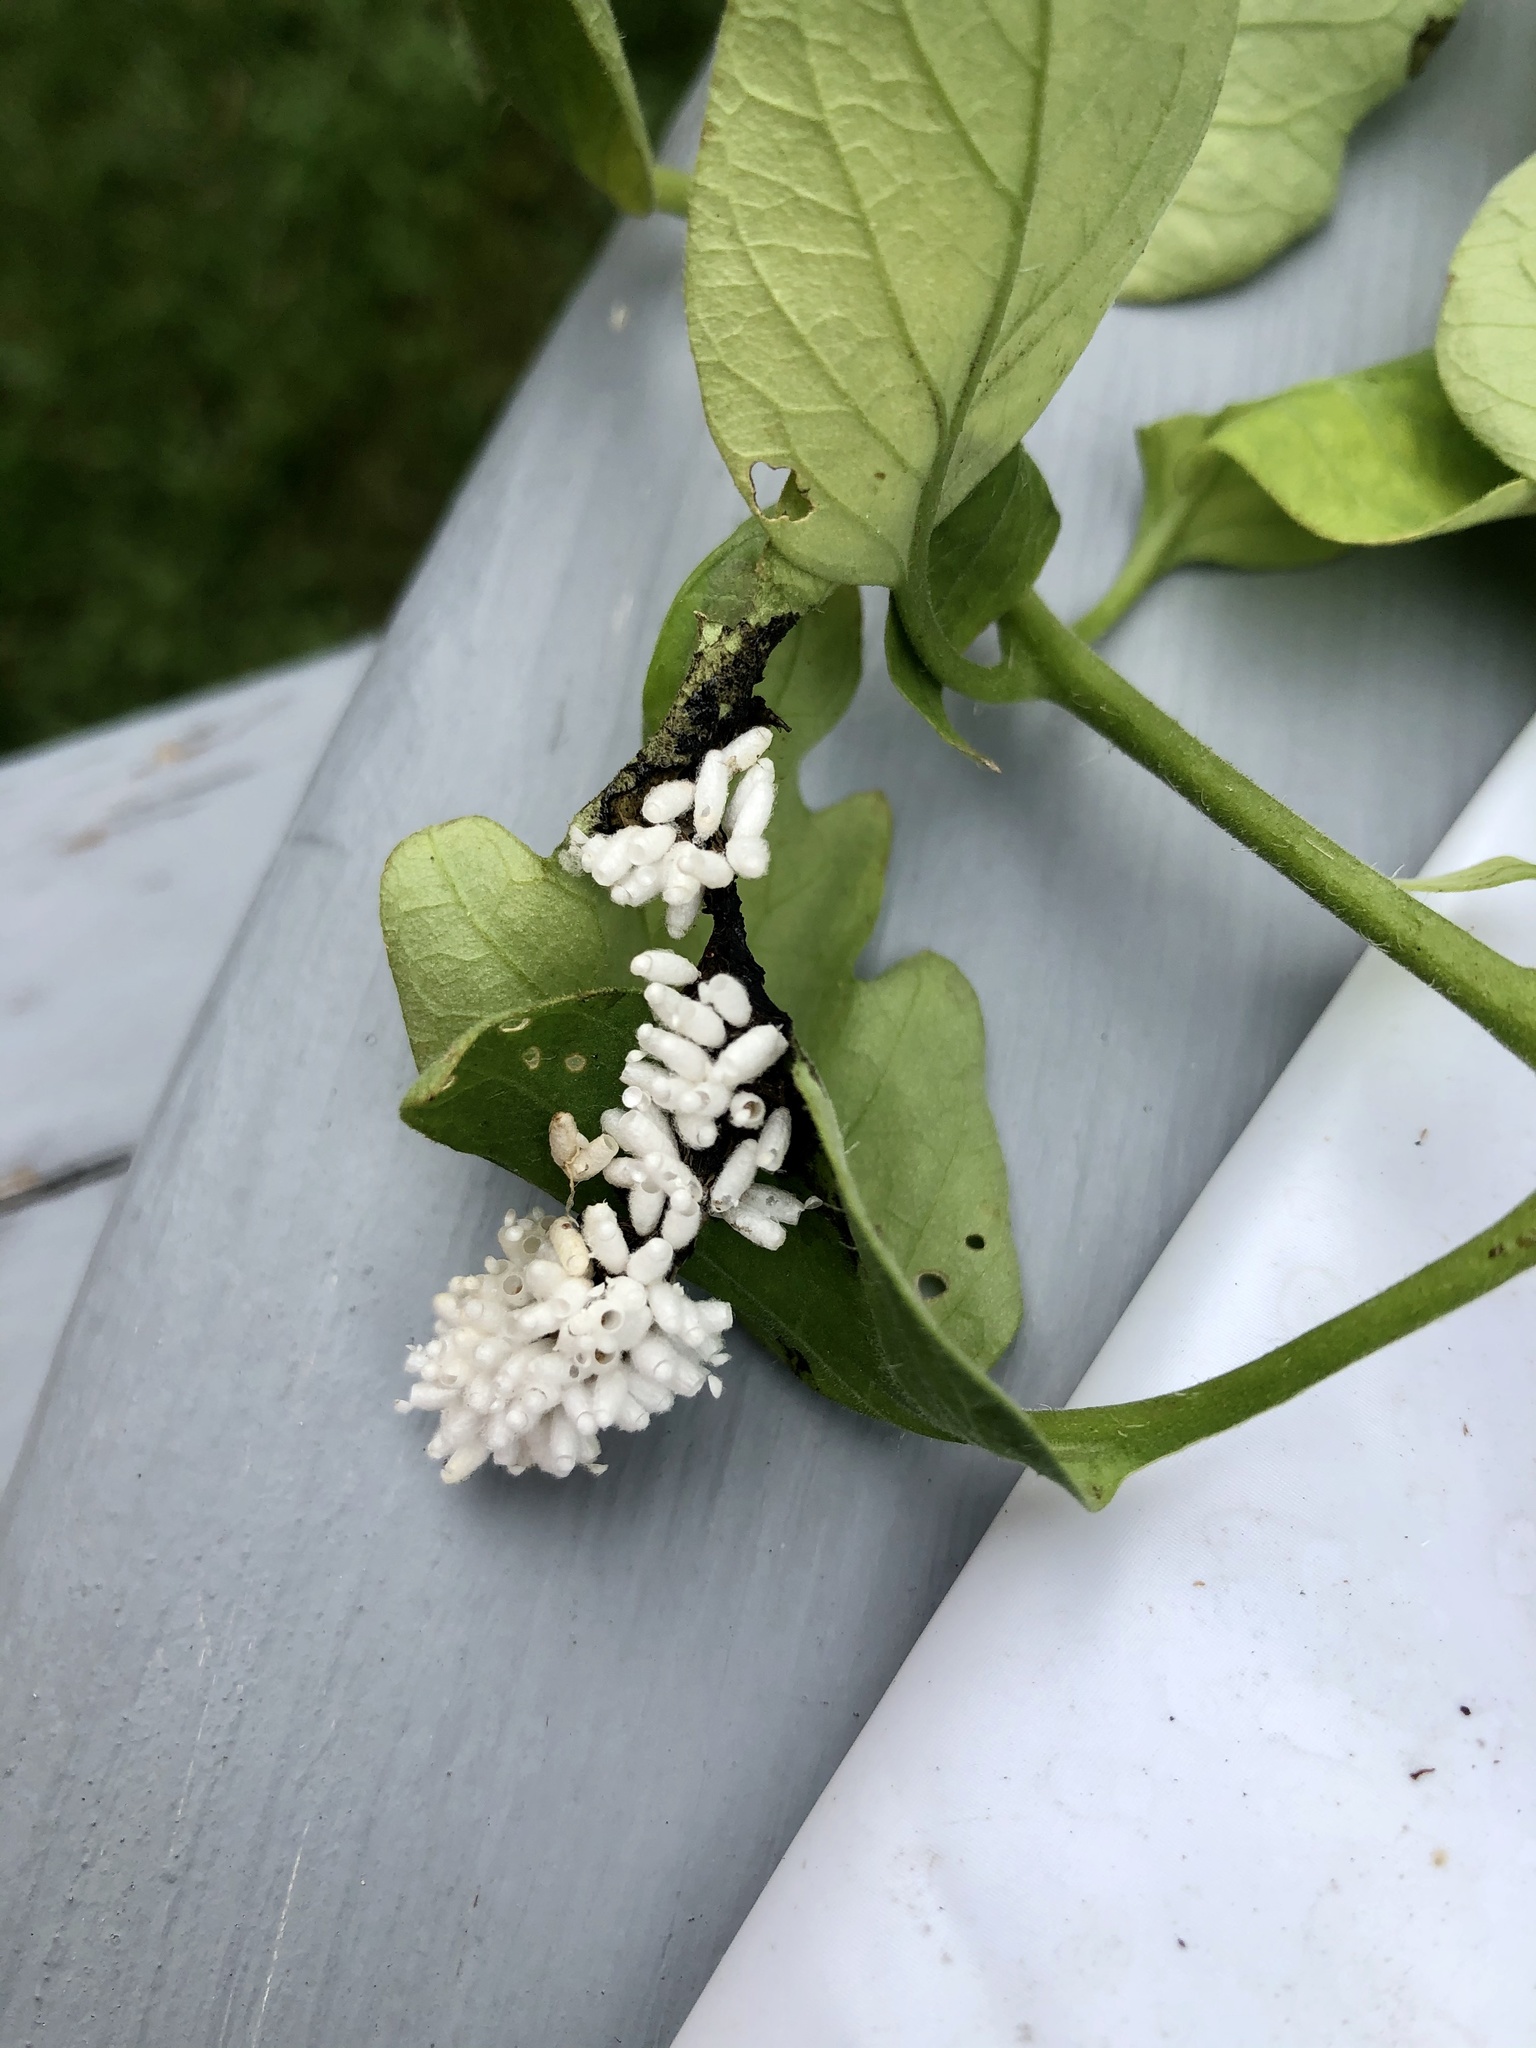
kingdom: Animalia
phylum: Arthropoda
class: Insecta
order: Hymenoptera
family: Braconidae
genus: Cotesia
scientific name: Cotesia congregata
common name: Hornworm parasitoid wasp
